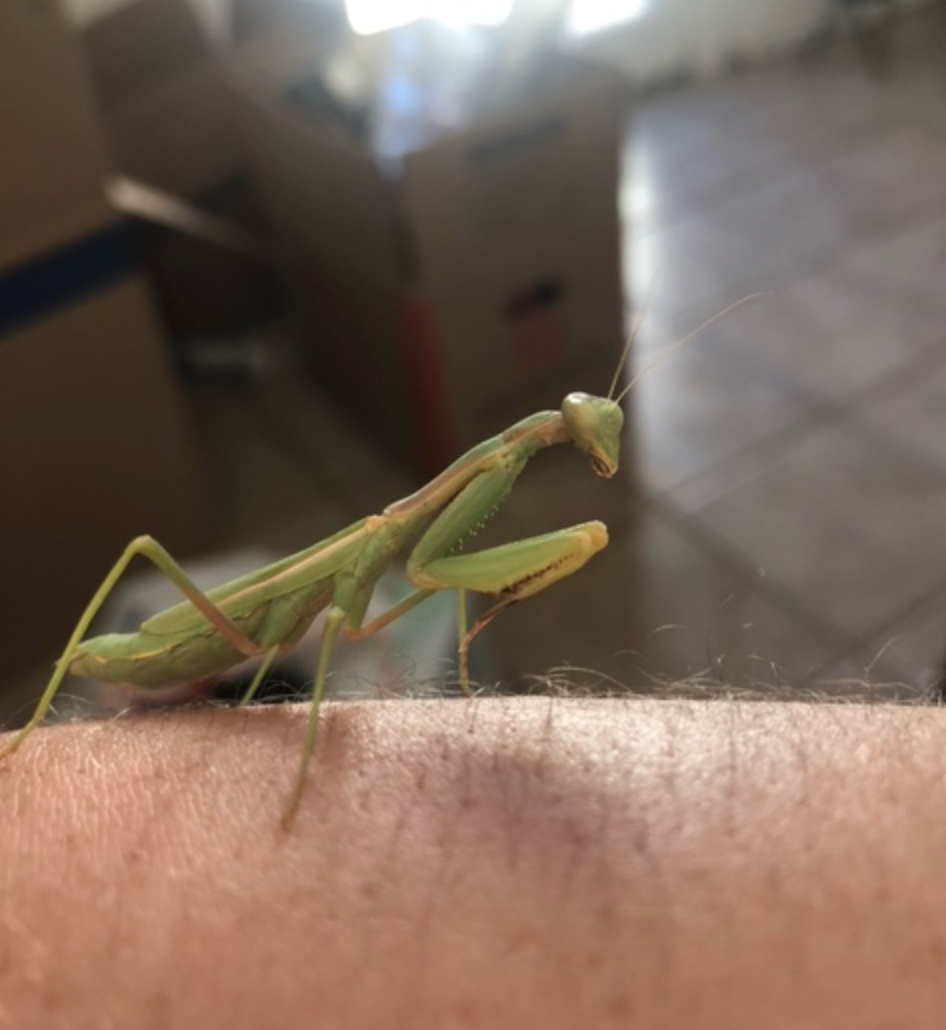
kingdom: Animalia
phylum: Arthropoda
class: Insecta
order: Mantodea
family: Eremiaphilidae
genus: Iris
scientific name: Iris oratoria
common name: Mediterranean mantis
